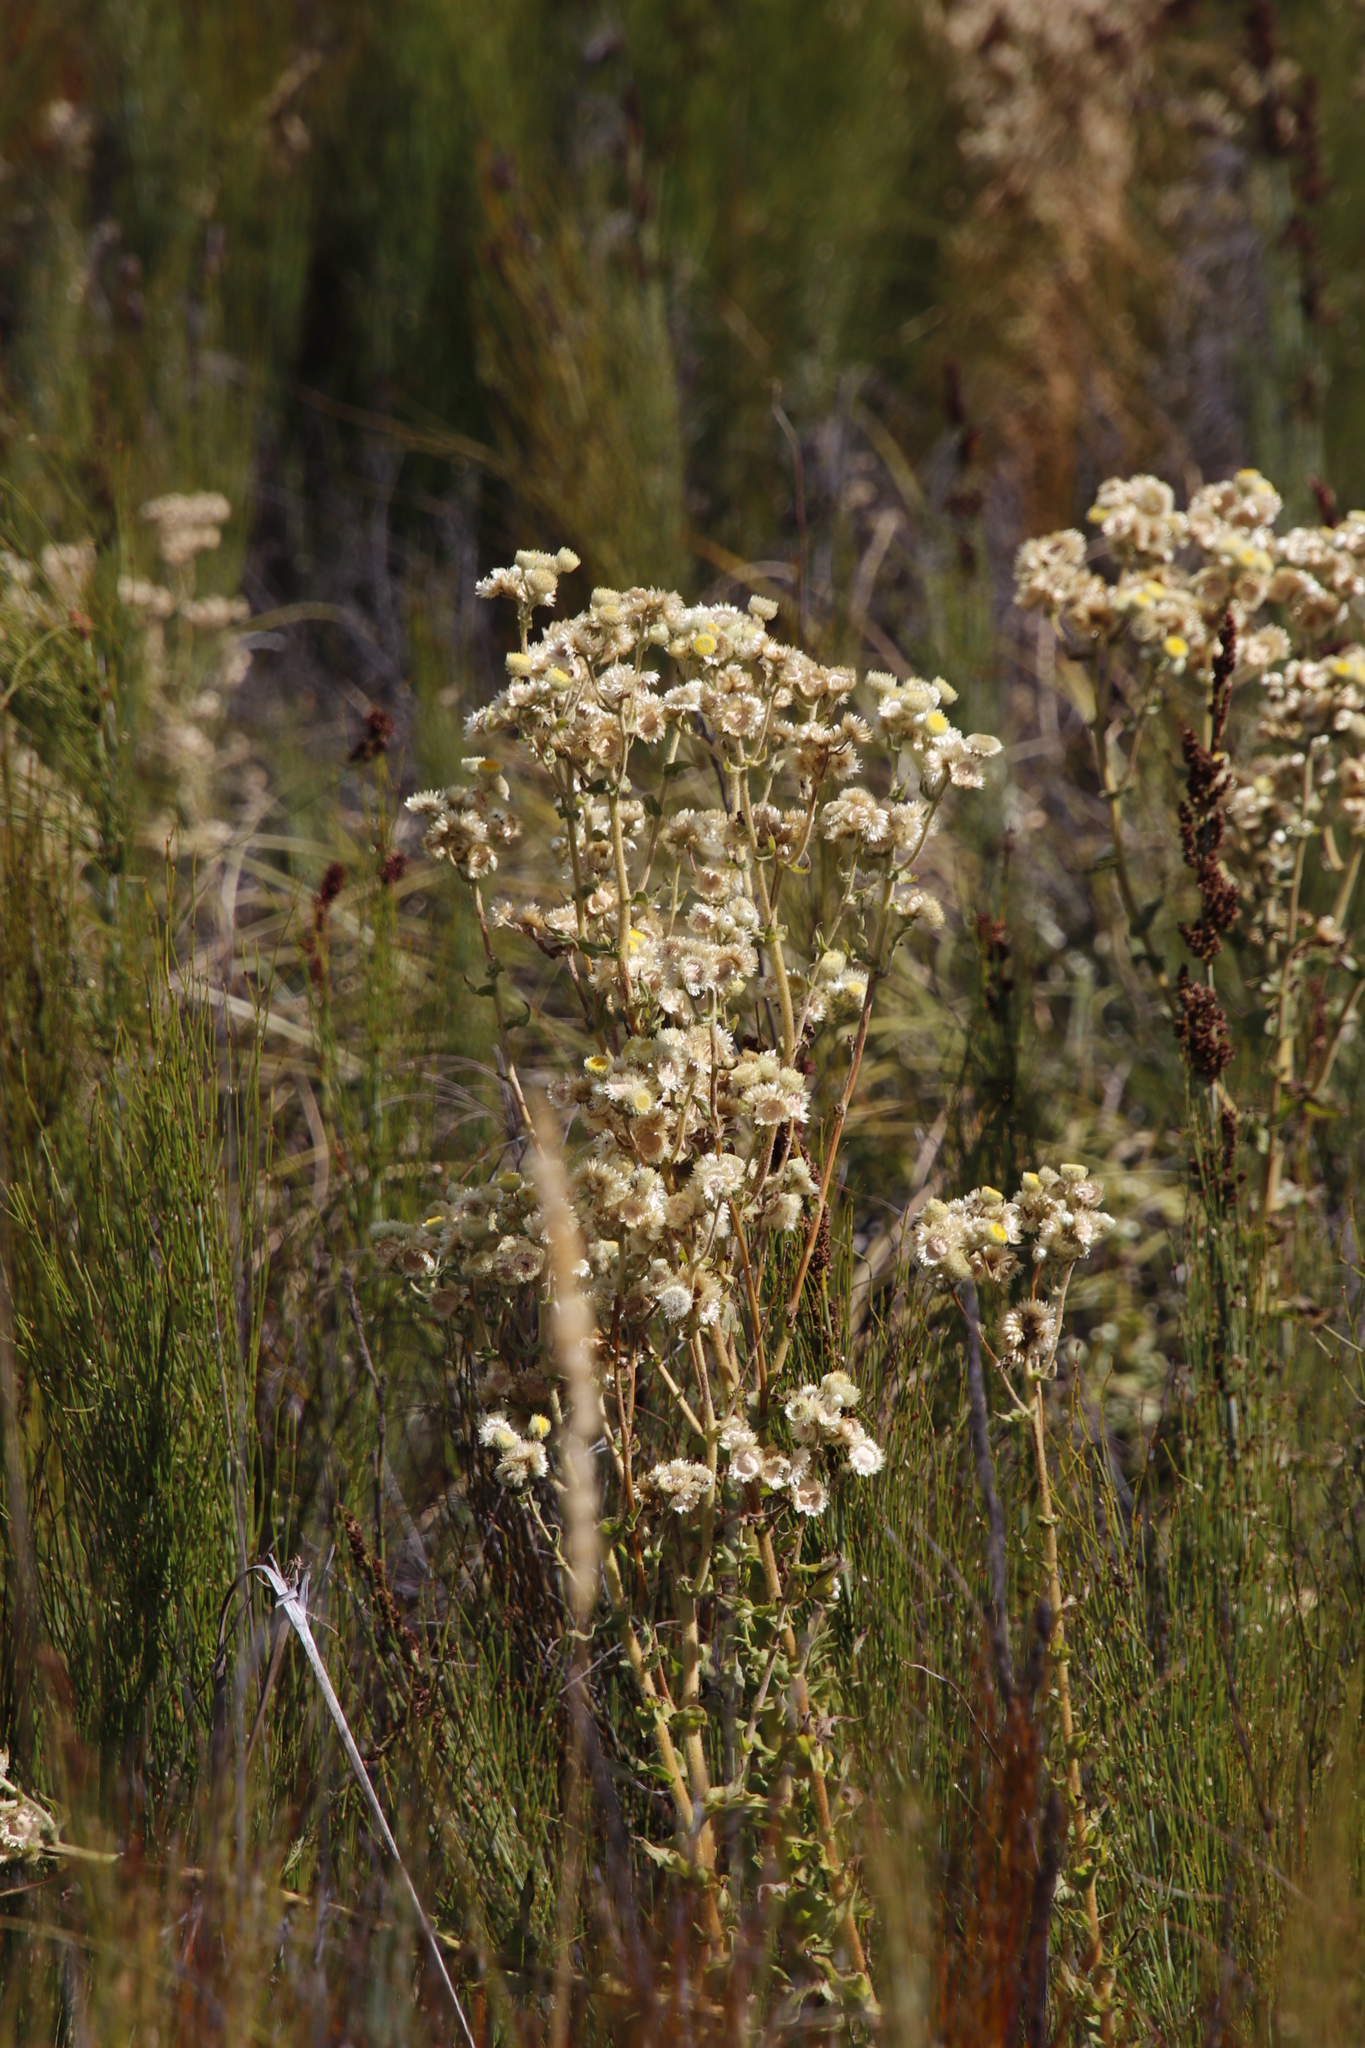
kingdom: Plantae
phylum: Tracheophyta
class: Magnoliopsida
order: Asterales
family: Asteraceae
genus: Helichrysum
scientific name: Helichrysum foetidum
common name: Stinking everlasting
